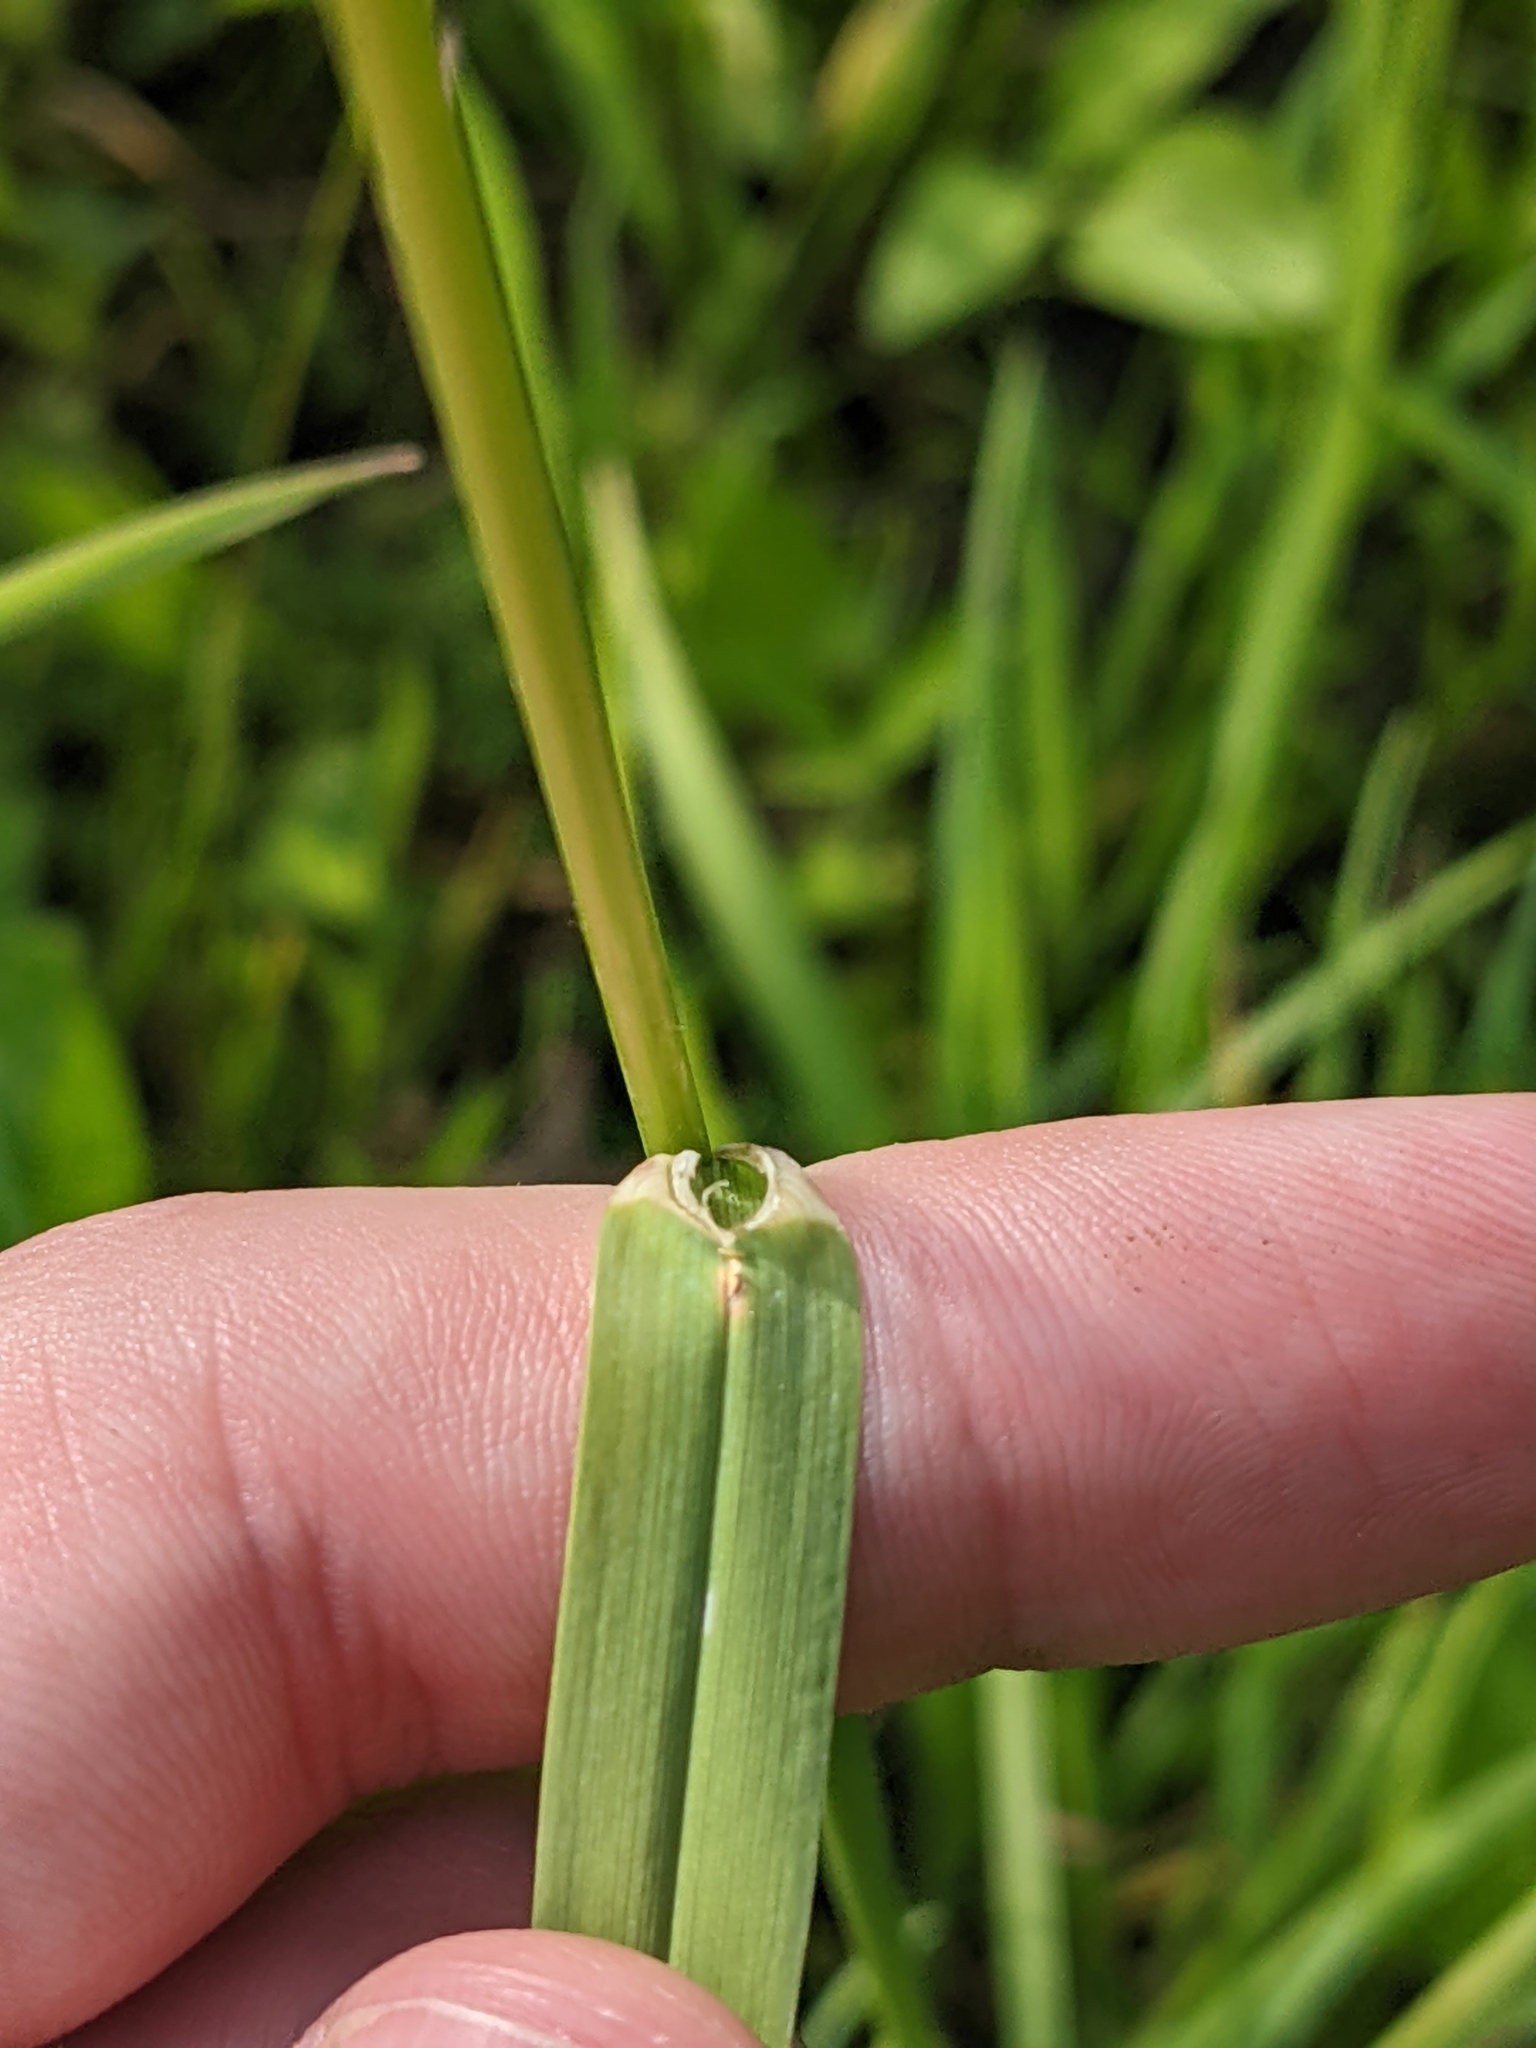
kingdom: Plantae
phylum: Tracheophyta
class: Liliopsida
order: Poales
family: Poaceae
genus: Dactylis
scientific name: Dactylis glomerata
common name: Orchardgrass
